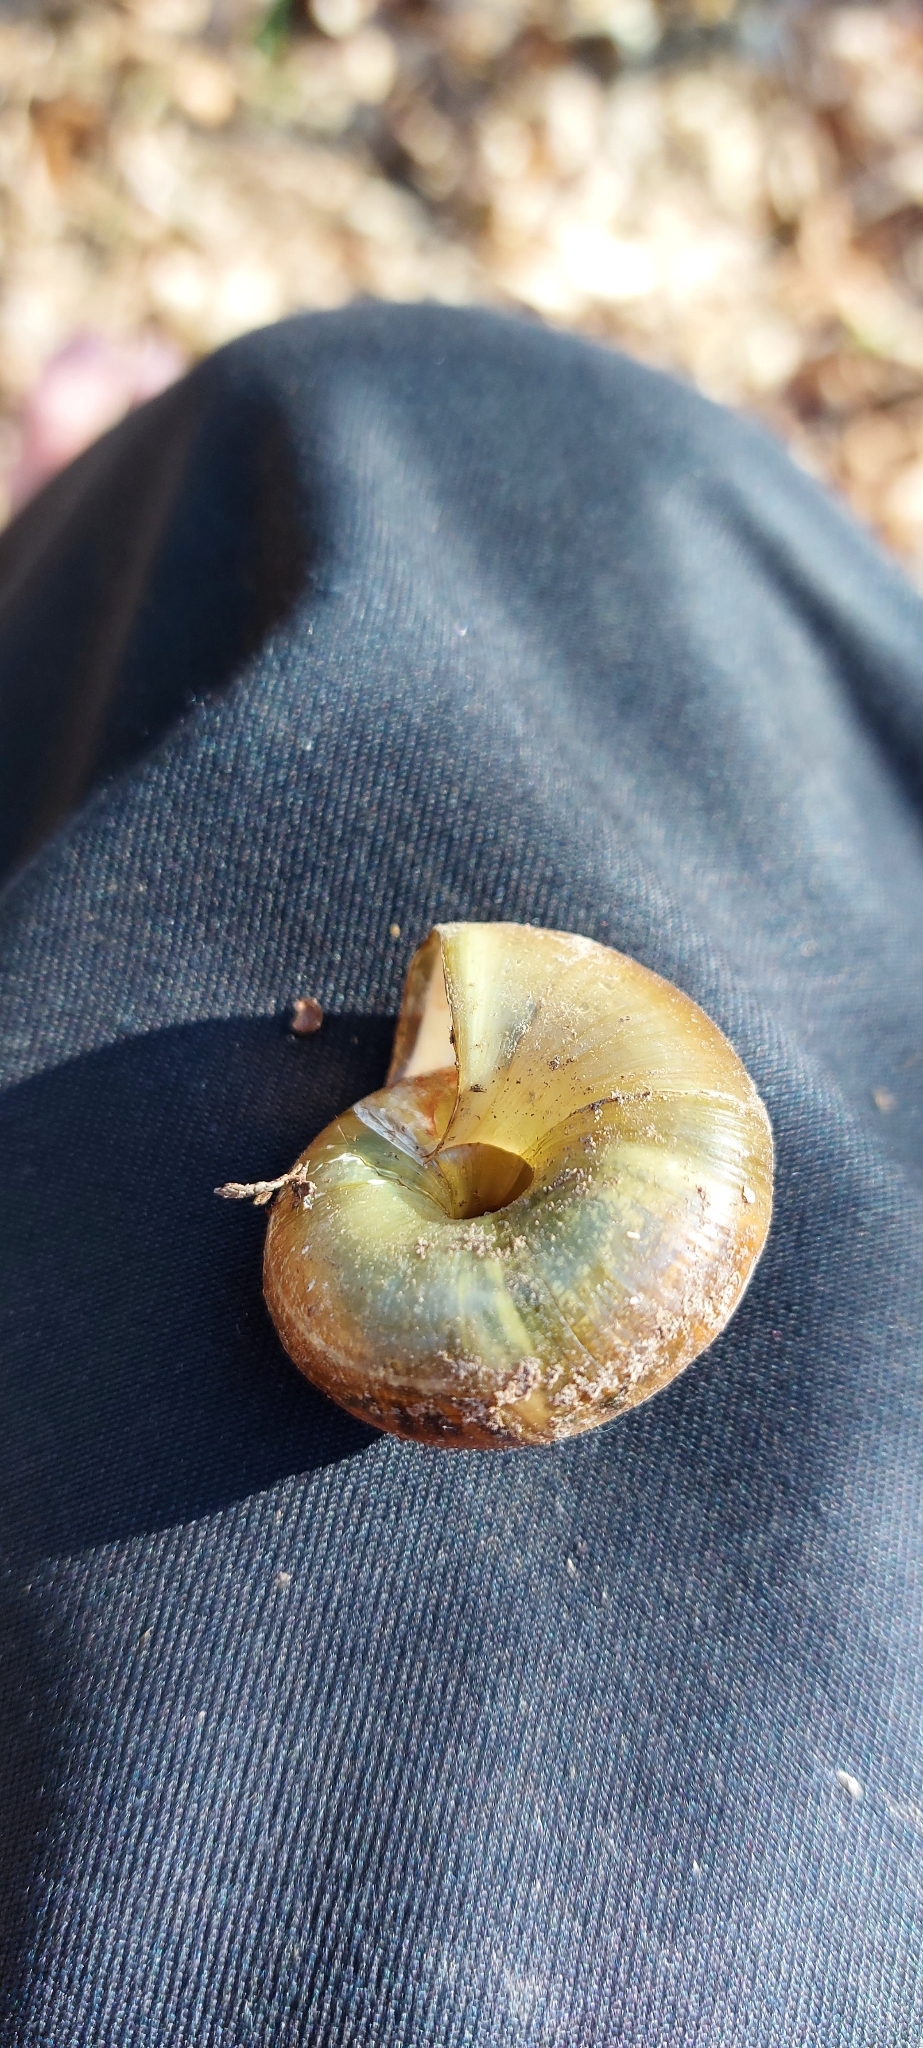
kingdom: Animalia
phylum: Mollusca
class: Gastropoda
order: Stylommatophora
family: Zonitidae
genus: Aegopis
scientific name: Aegopis verticillus
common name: Giant glass snail
